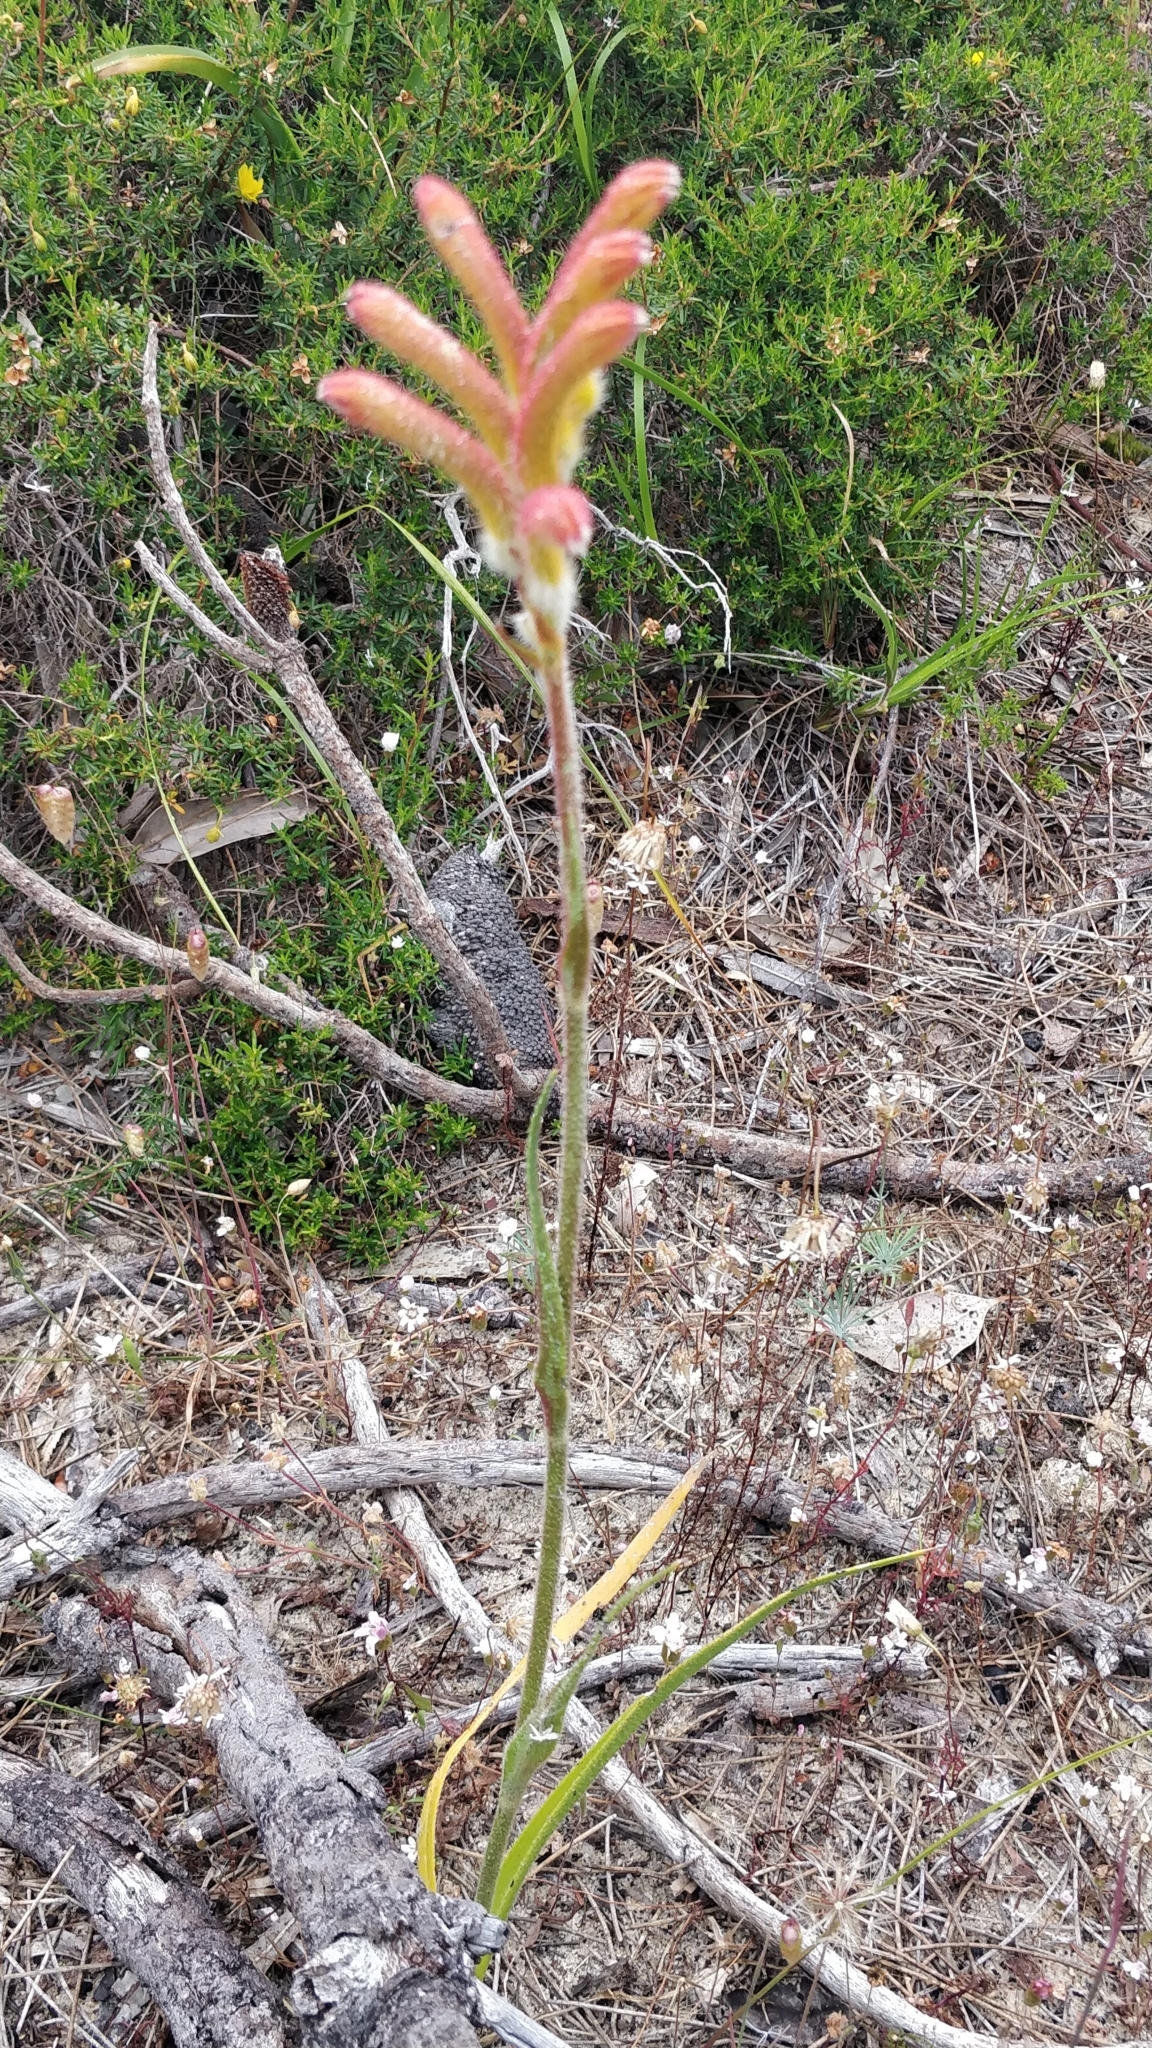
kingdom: Plantae
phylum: Tracheophyta
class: Liliopsida
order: Commelinales
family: Haemodoraceae
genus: Anigozanthos
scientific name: Anigozanthos humilis
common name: Cat's-paw
